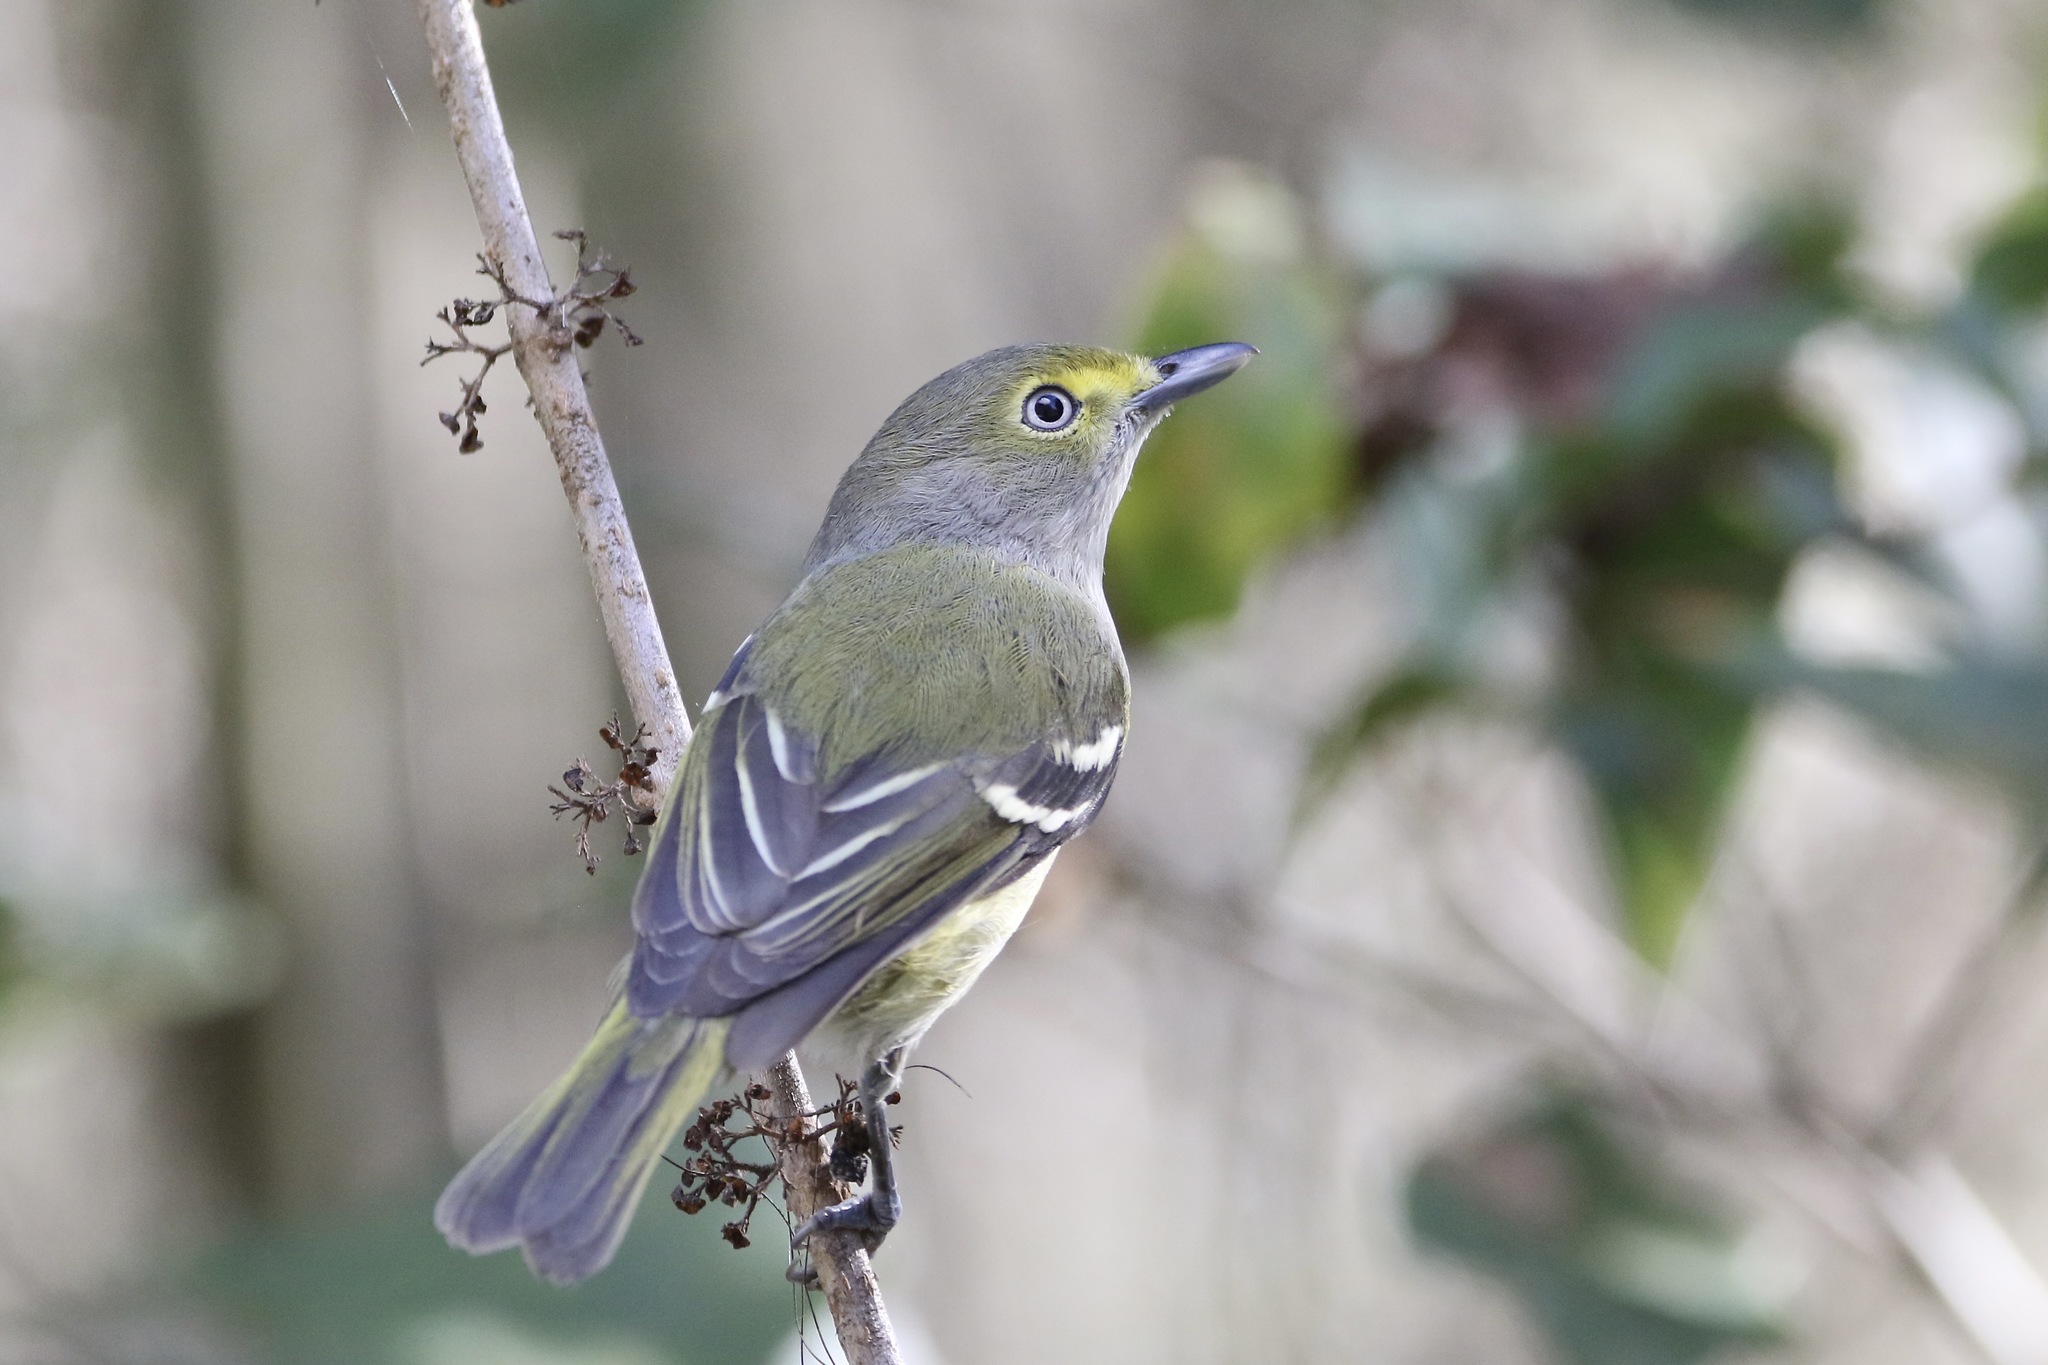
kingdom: Animalia
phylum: Chordata
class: Aves
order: Passeriformes
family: Vireonidae
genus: Vireo
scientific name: Vireo griseus
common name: White-eyed vireo
